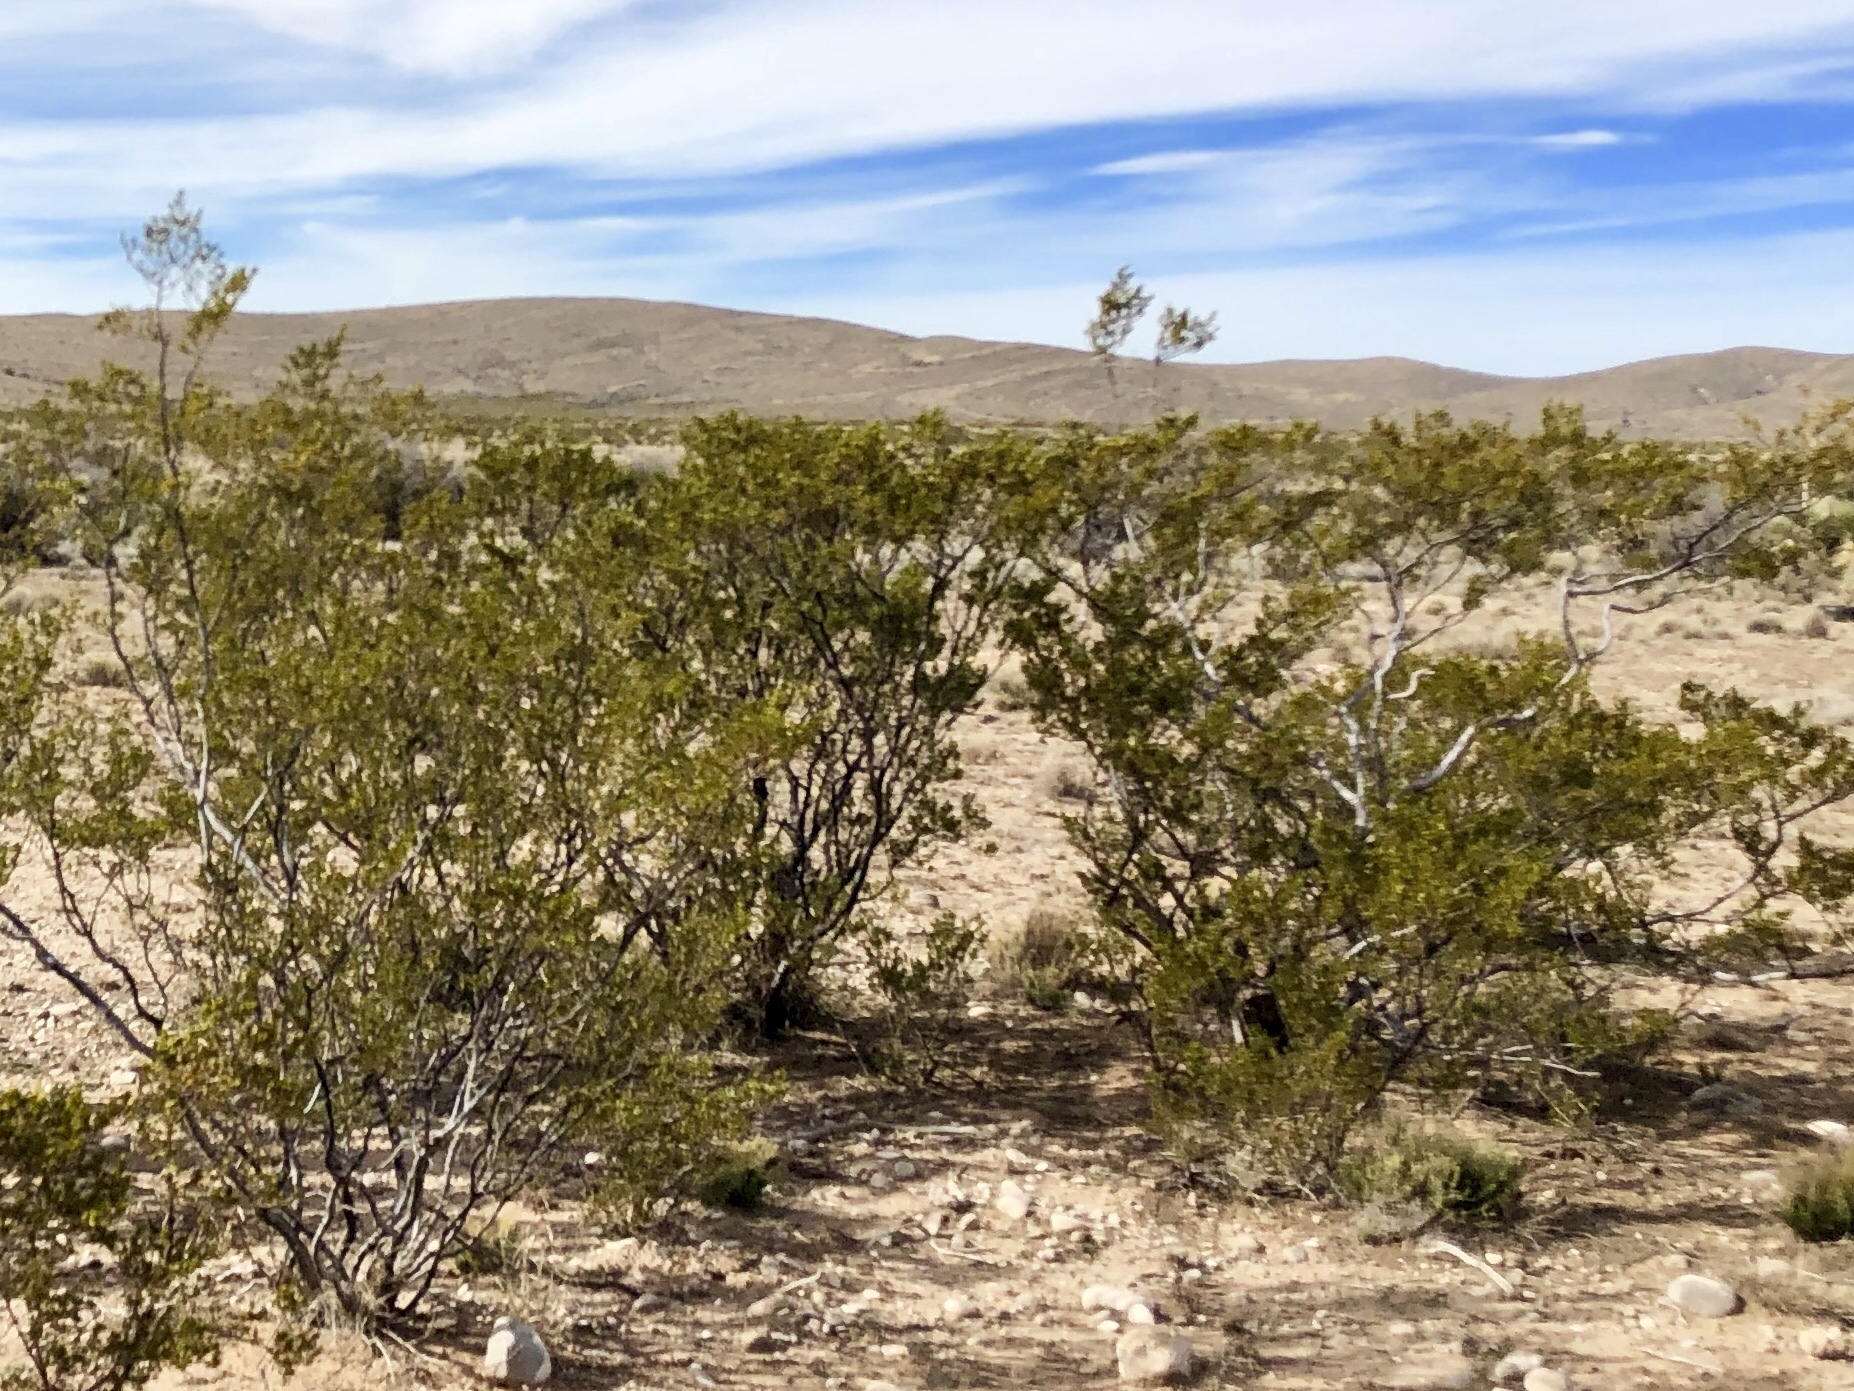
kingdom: Plantae
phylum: Tracheophyta
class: Magnoliopsida
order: Zygophyllales
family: Zygophyllaceae
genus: Larrea
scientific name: Larrea tridentata
